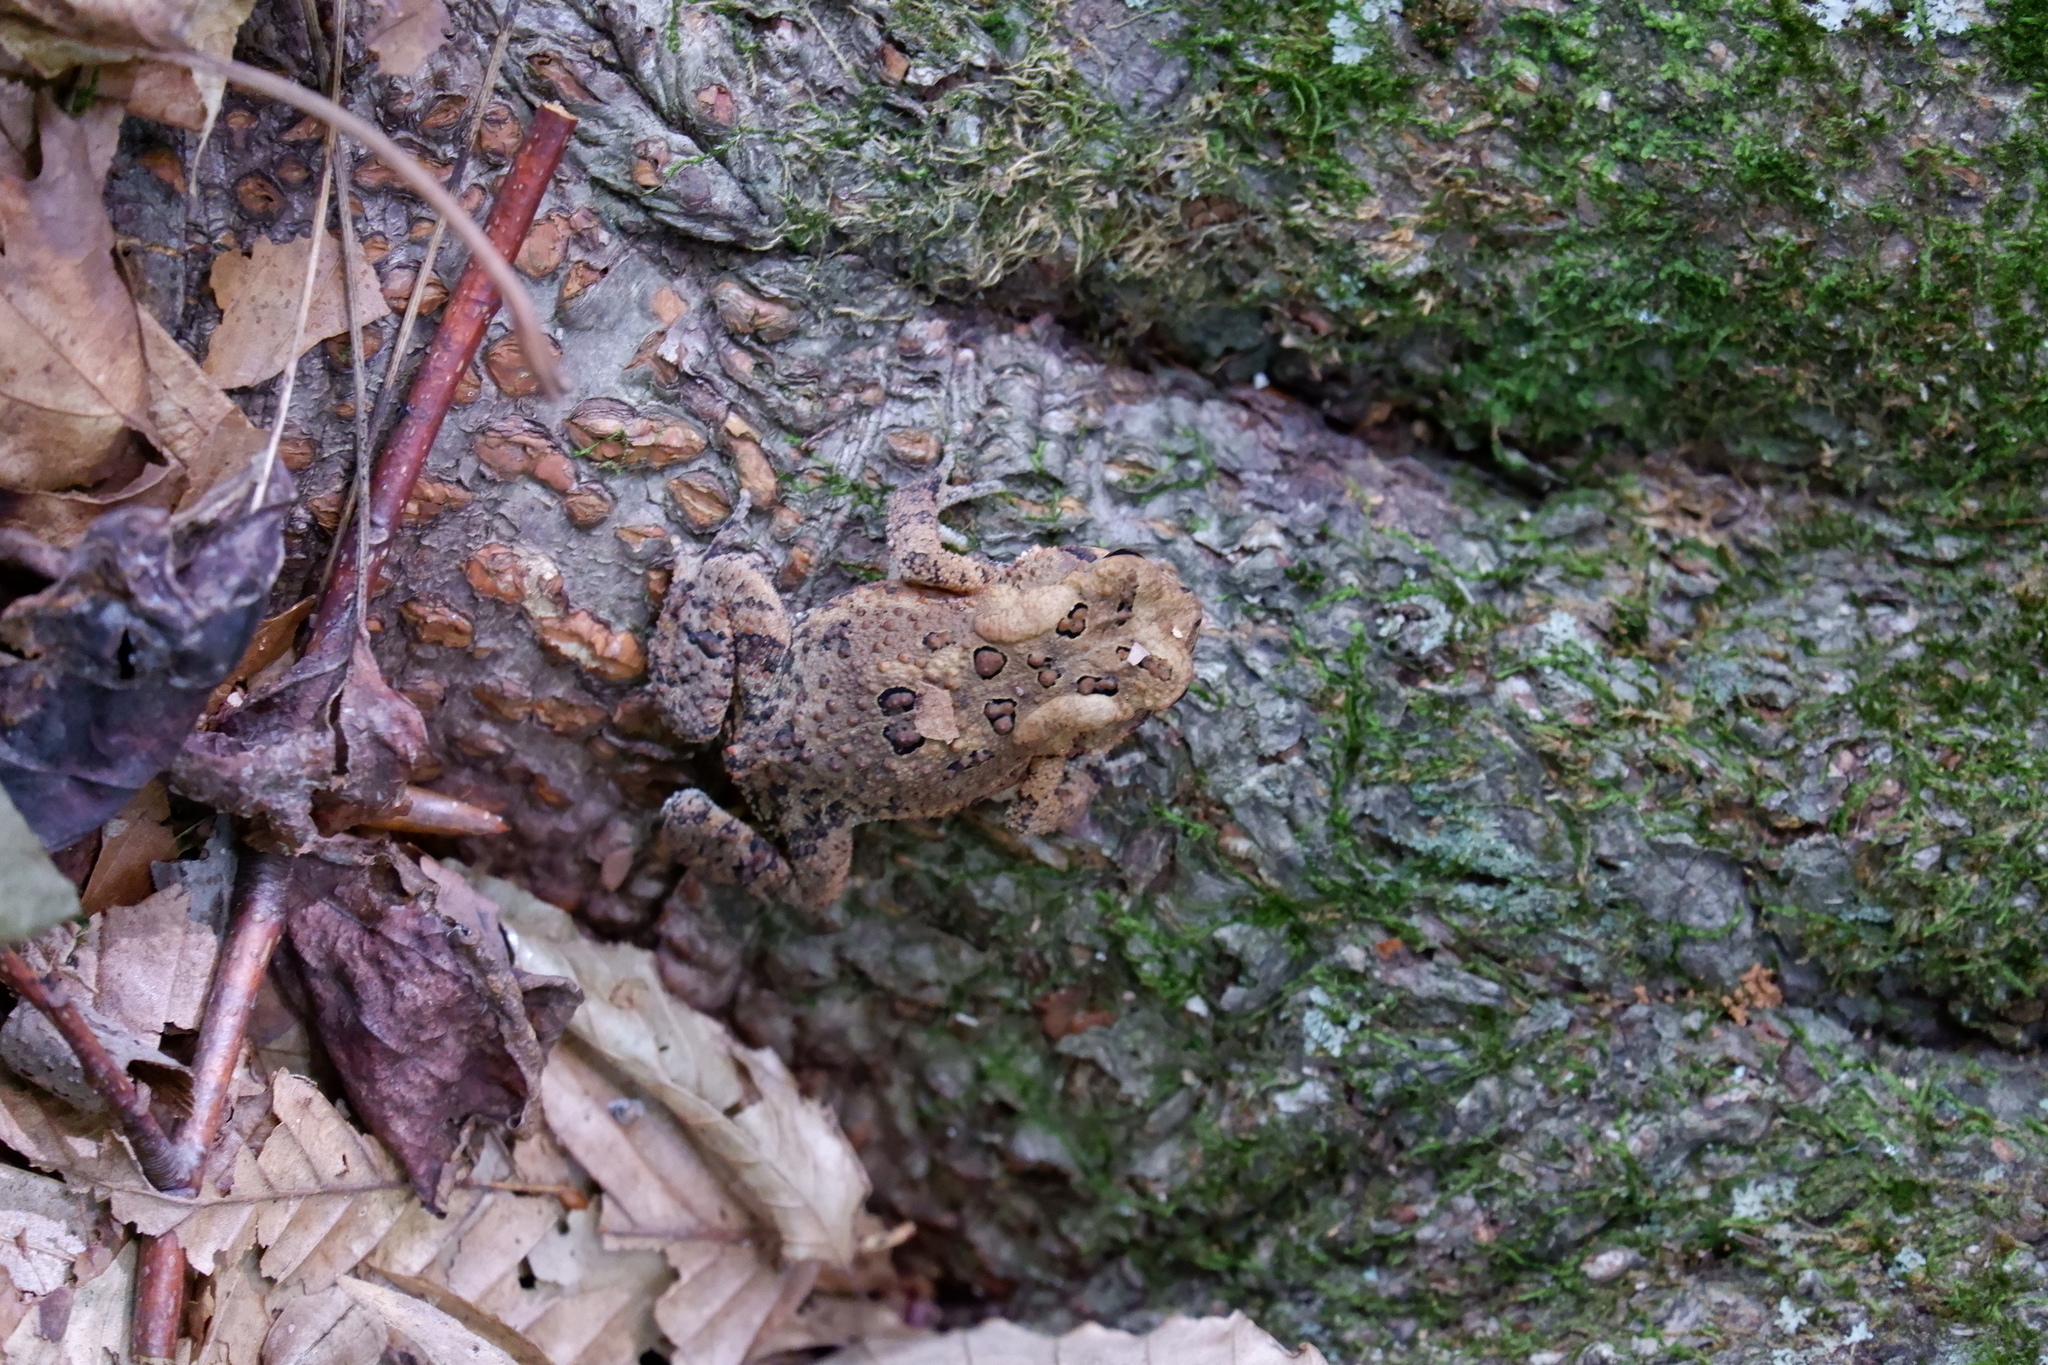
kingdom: Animalia
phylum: Chordata
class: Amphibia
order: Anura
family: Bufonidae
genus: Anaxyrus
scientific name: Anaxyrus americanus
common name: American toad
